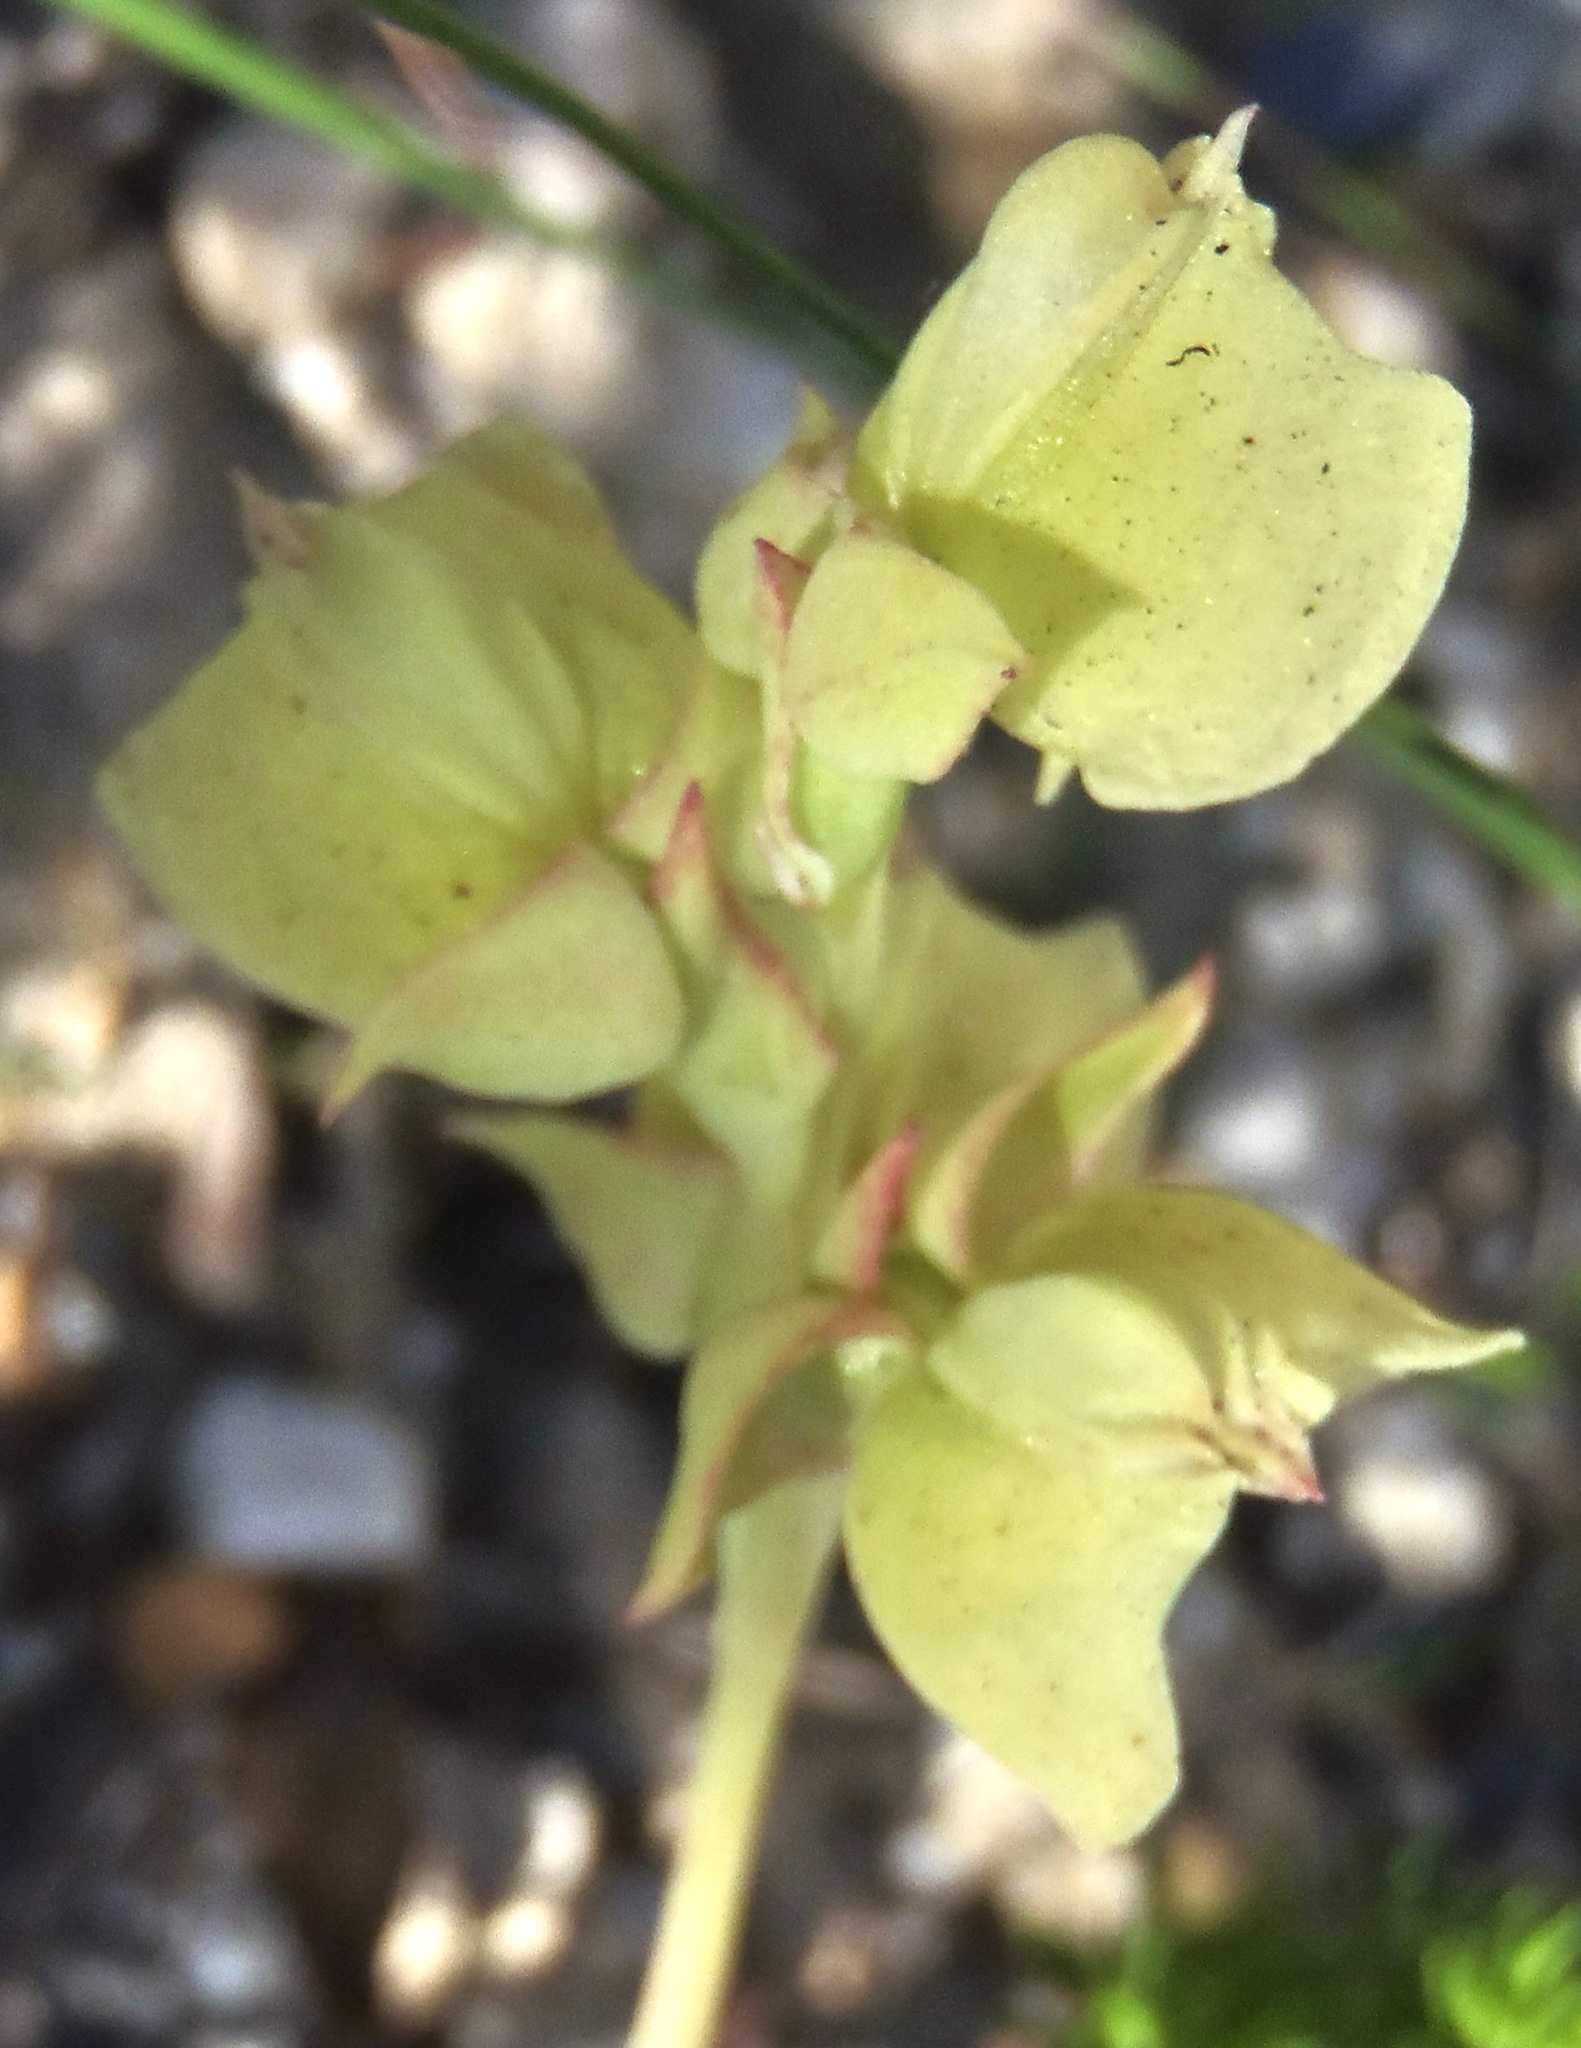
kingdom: Plantae
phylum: Tracheophyta
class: Liliopsida
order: Asparagales
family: Orchidaceae
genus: Pterygodium
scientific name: Pterygodium catholicum
